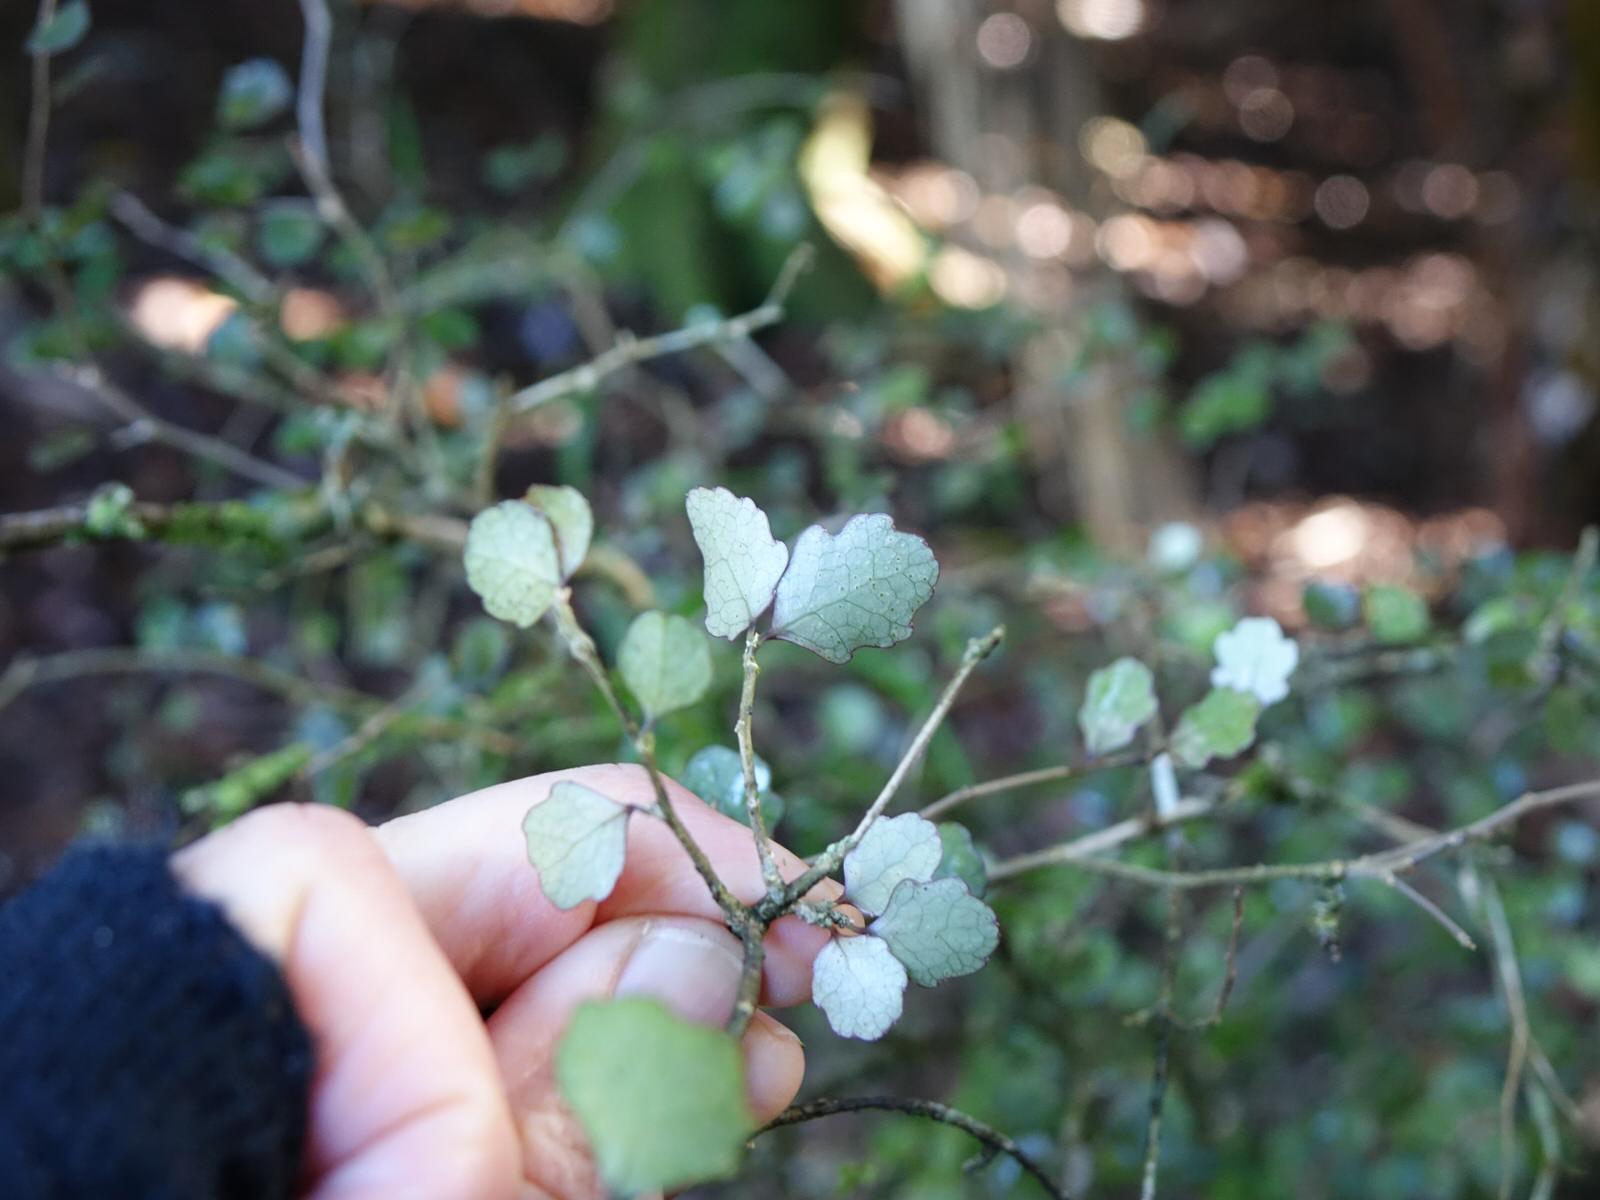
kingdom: Plantae
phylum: Tracheophyta
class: Magnoliopsida
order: Malpighiales
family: Violaceae
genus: Melicytus
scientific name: Melicytus micranthus
